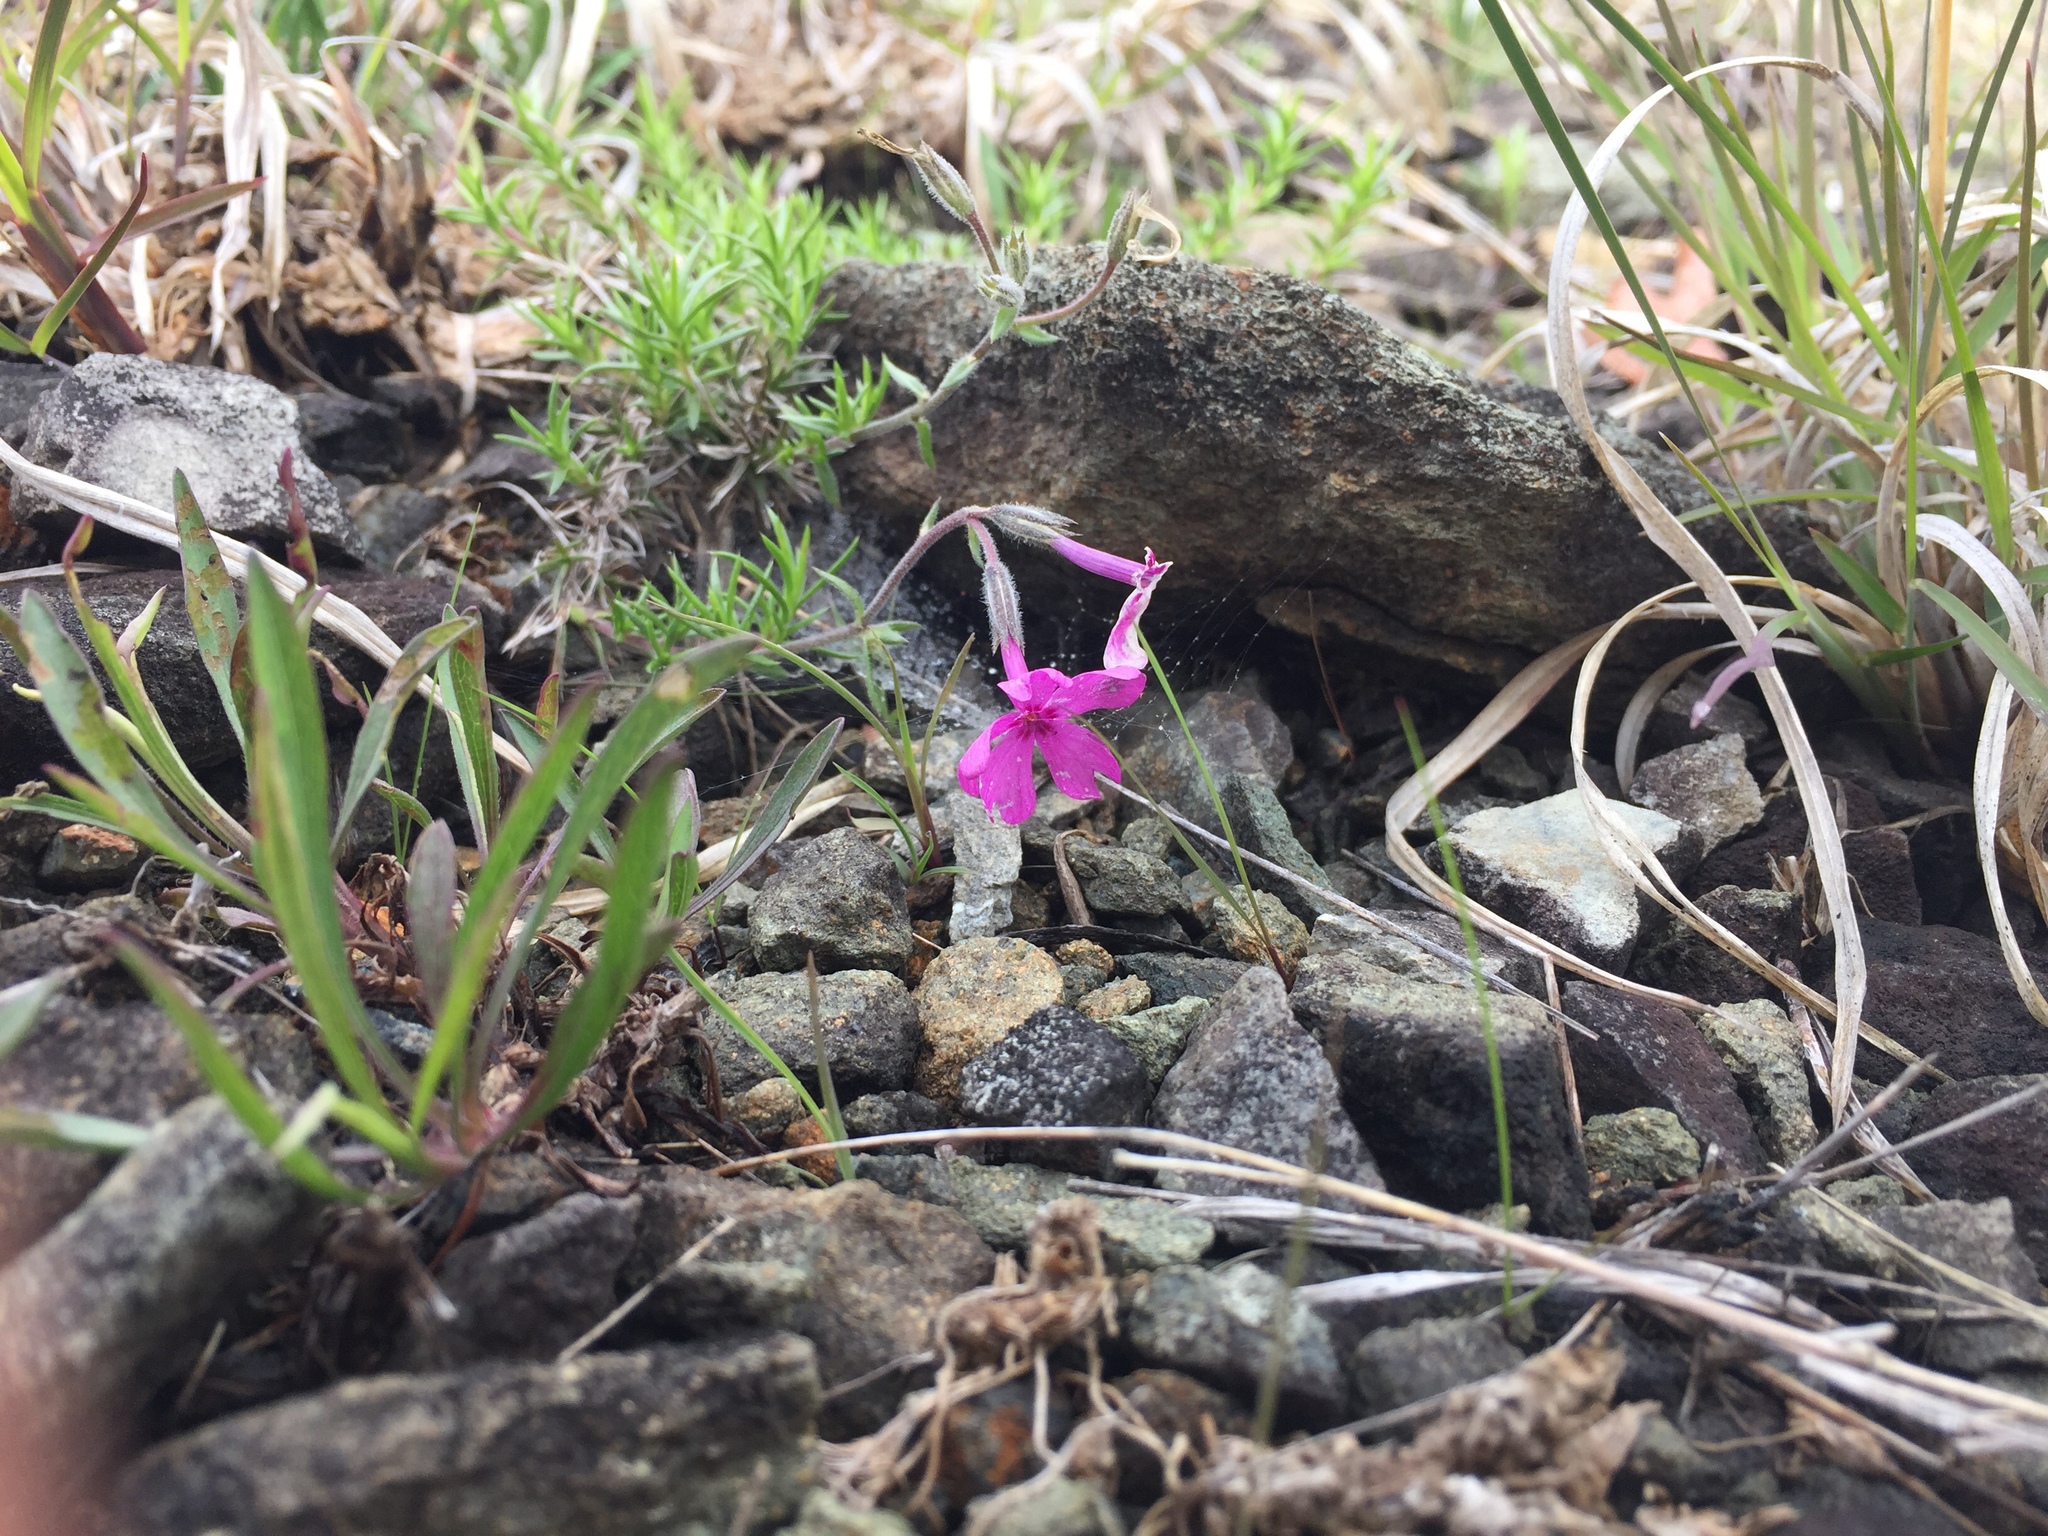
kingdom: Plantae
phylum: Tracheophyta
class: Magnoliopsida
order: Ericales
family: Polemoniaceae
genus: Phlox
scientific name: Phlox subulata
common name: Moss phlox
